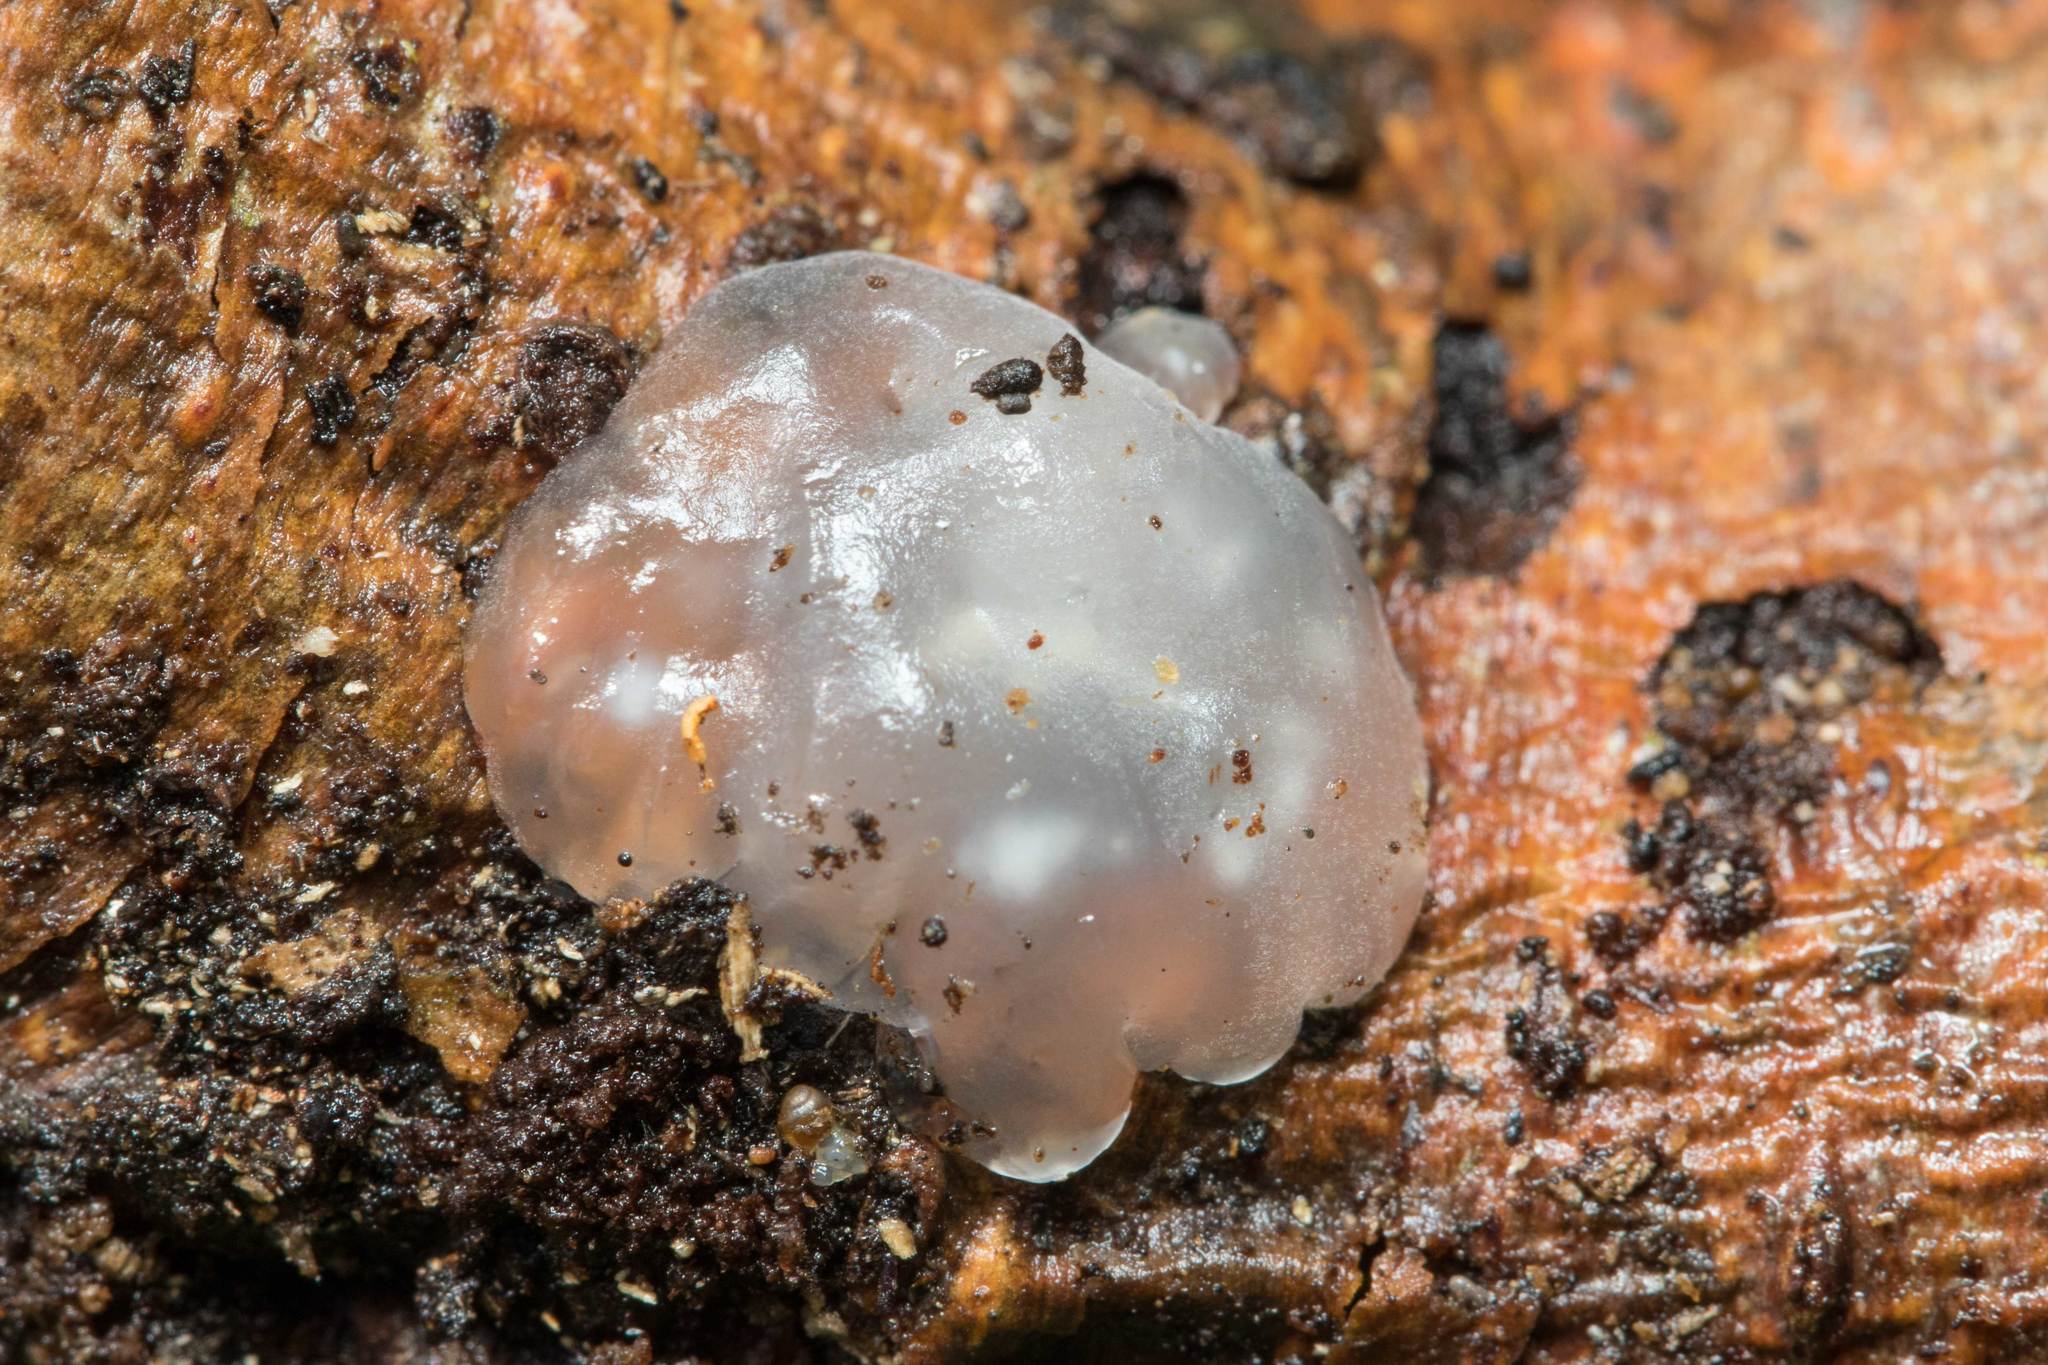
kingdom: Fungi
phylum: Basidiomycota
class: Agaricomycetes
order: Auriculariales
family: Hyaloriaceae
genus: Myxarium
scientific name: Myxarium nucleatum
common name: Crystal brain fungus
